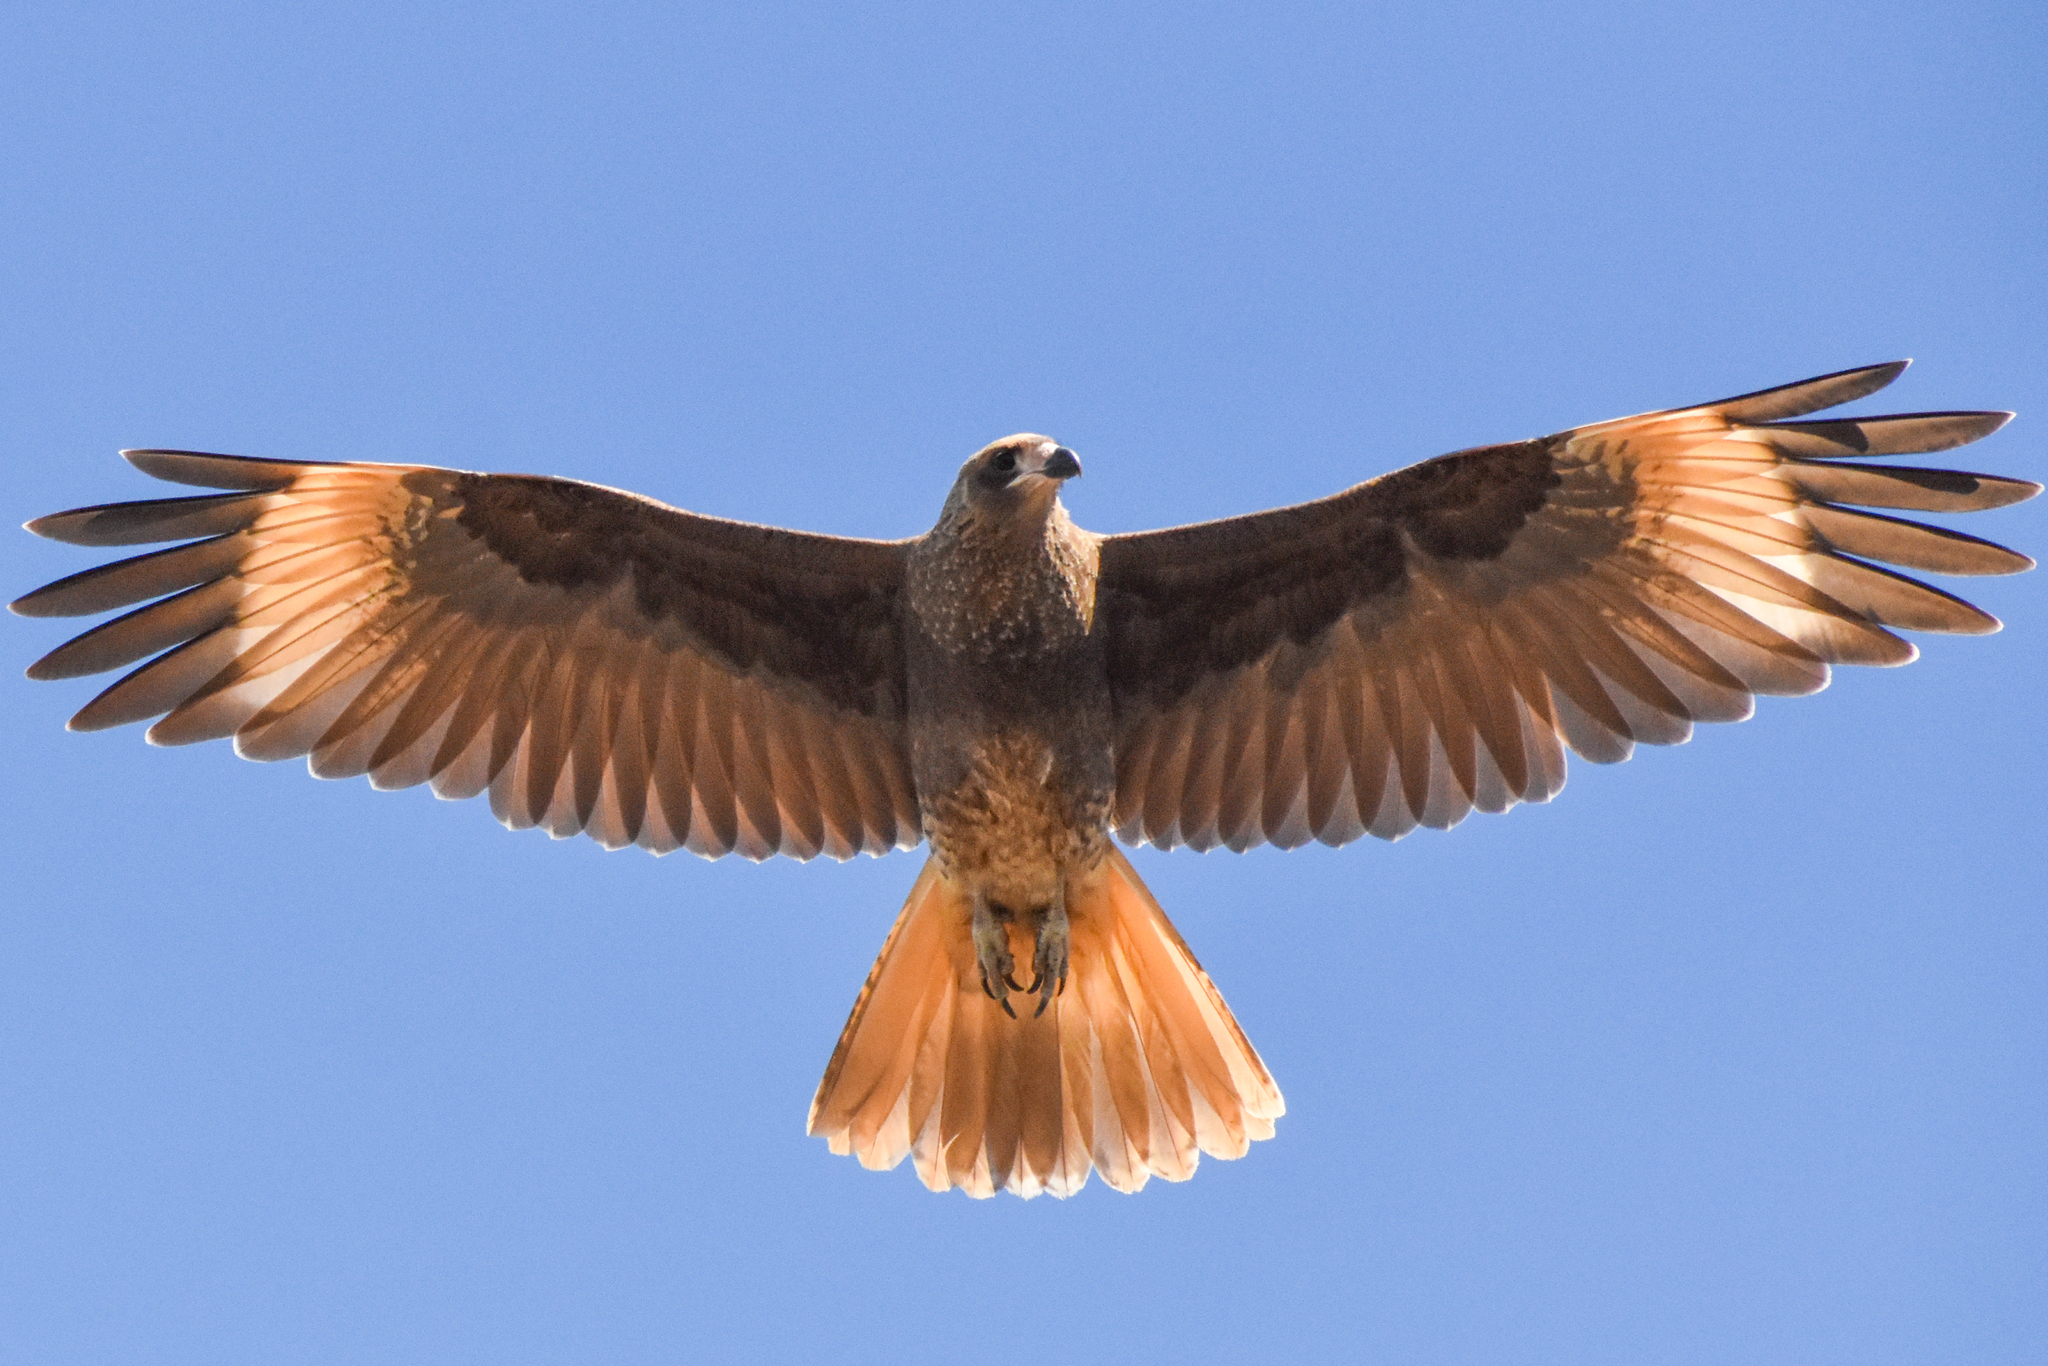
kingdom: Animalia
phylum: Chordata
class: Aves
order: Falconiformes
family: Falconidae
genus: Daptrius
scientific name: Daptrius
